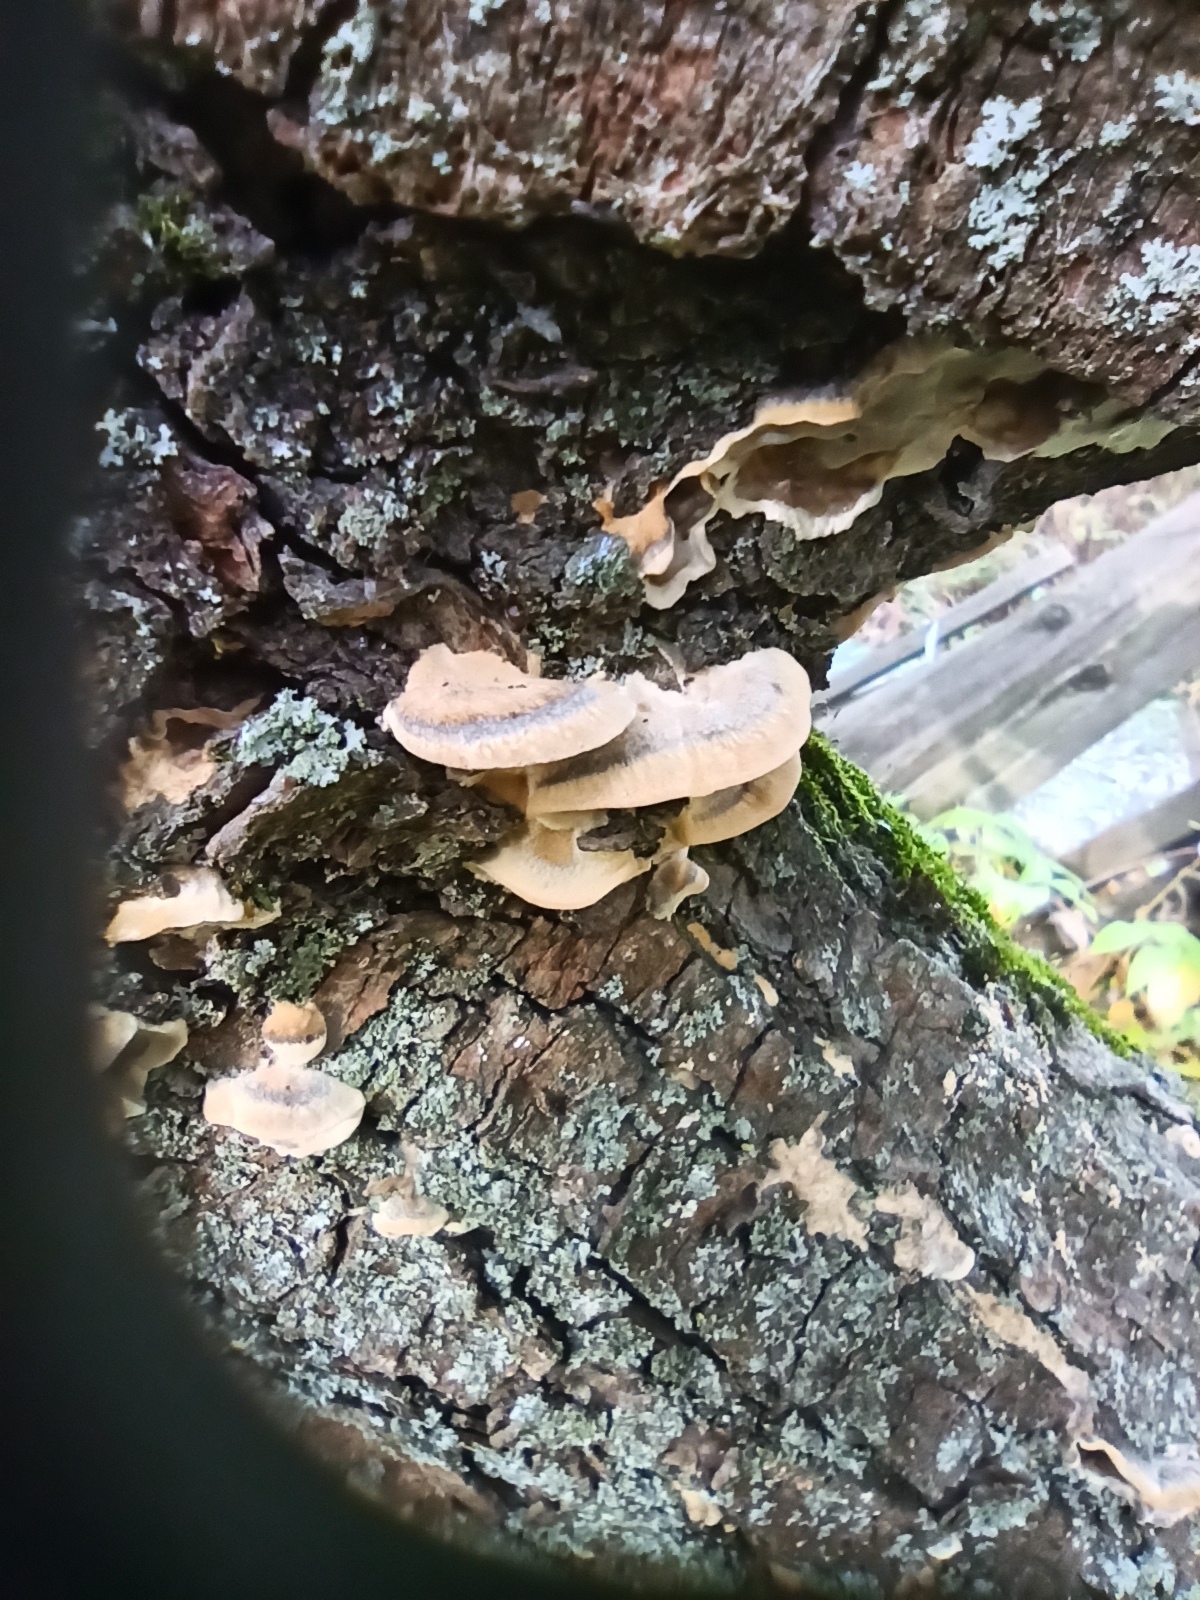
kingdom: Fungi
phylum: Basidiomycota
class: Agaricomycetes
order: Polyporales
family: Phanerochaetaceae
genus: Bjerkandera
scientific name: Bjerkandera adusta
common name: Smoky bracket
